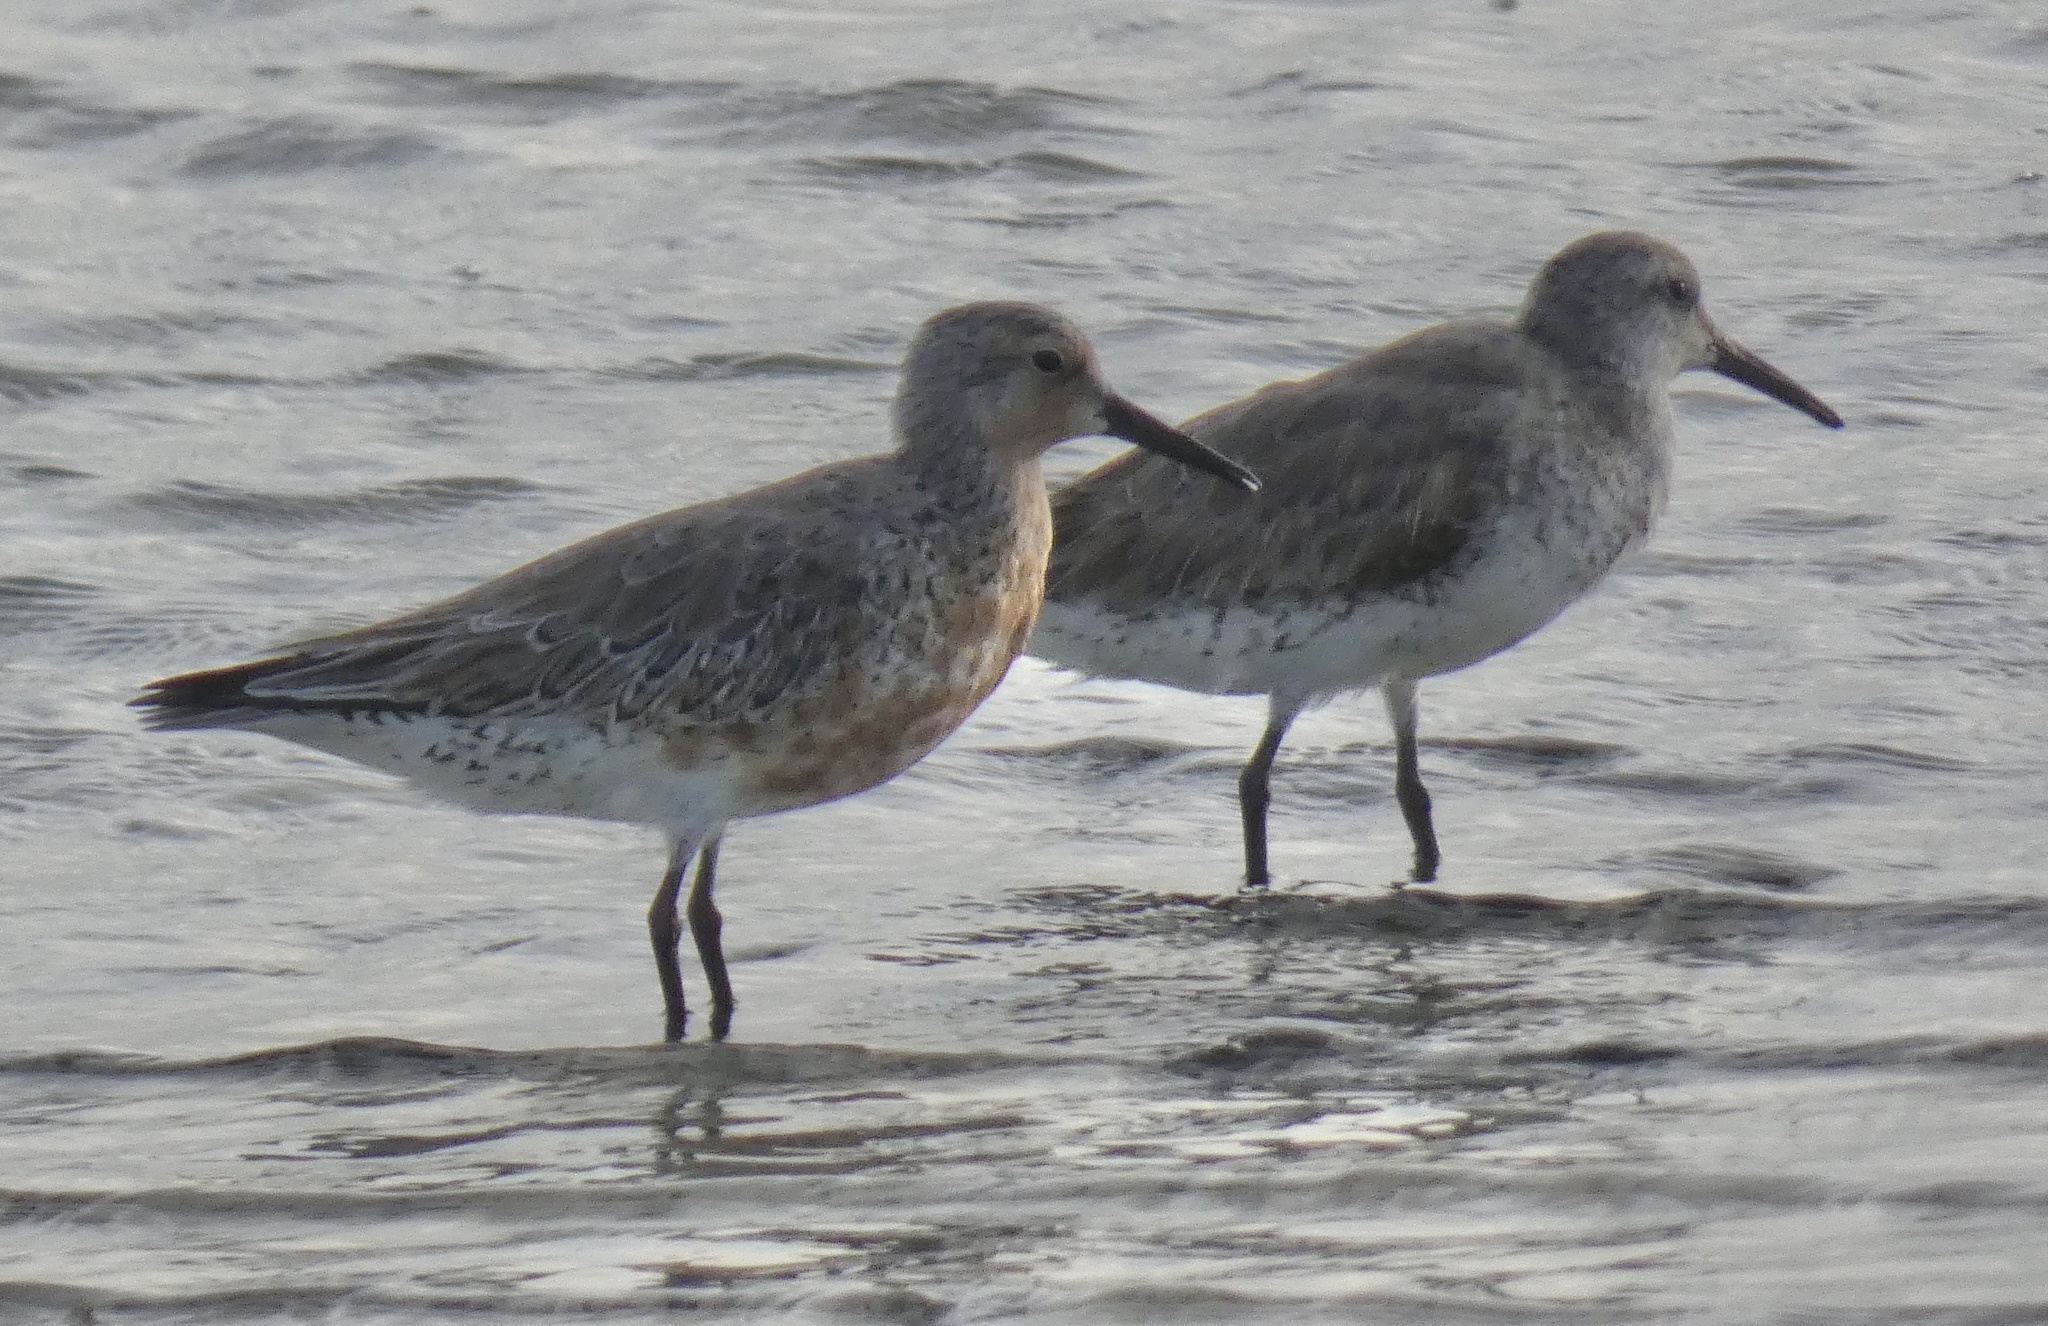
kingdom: Animalia
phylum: Chordata
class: Aves
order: Charadriiformes
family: Scolopacidae
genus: Calidris
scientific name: Calidris canutus
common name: Red knot
